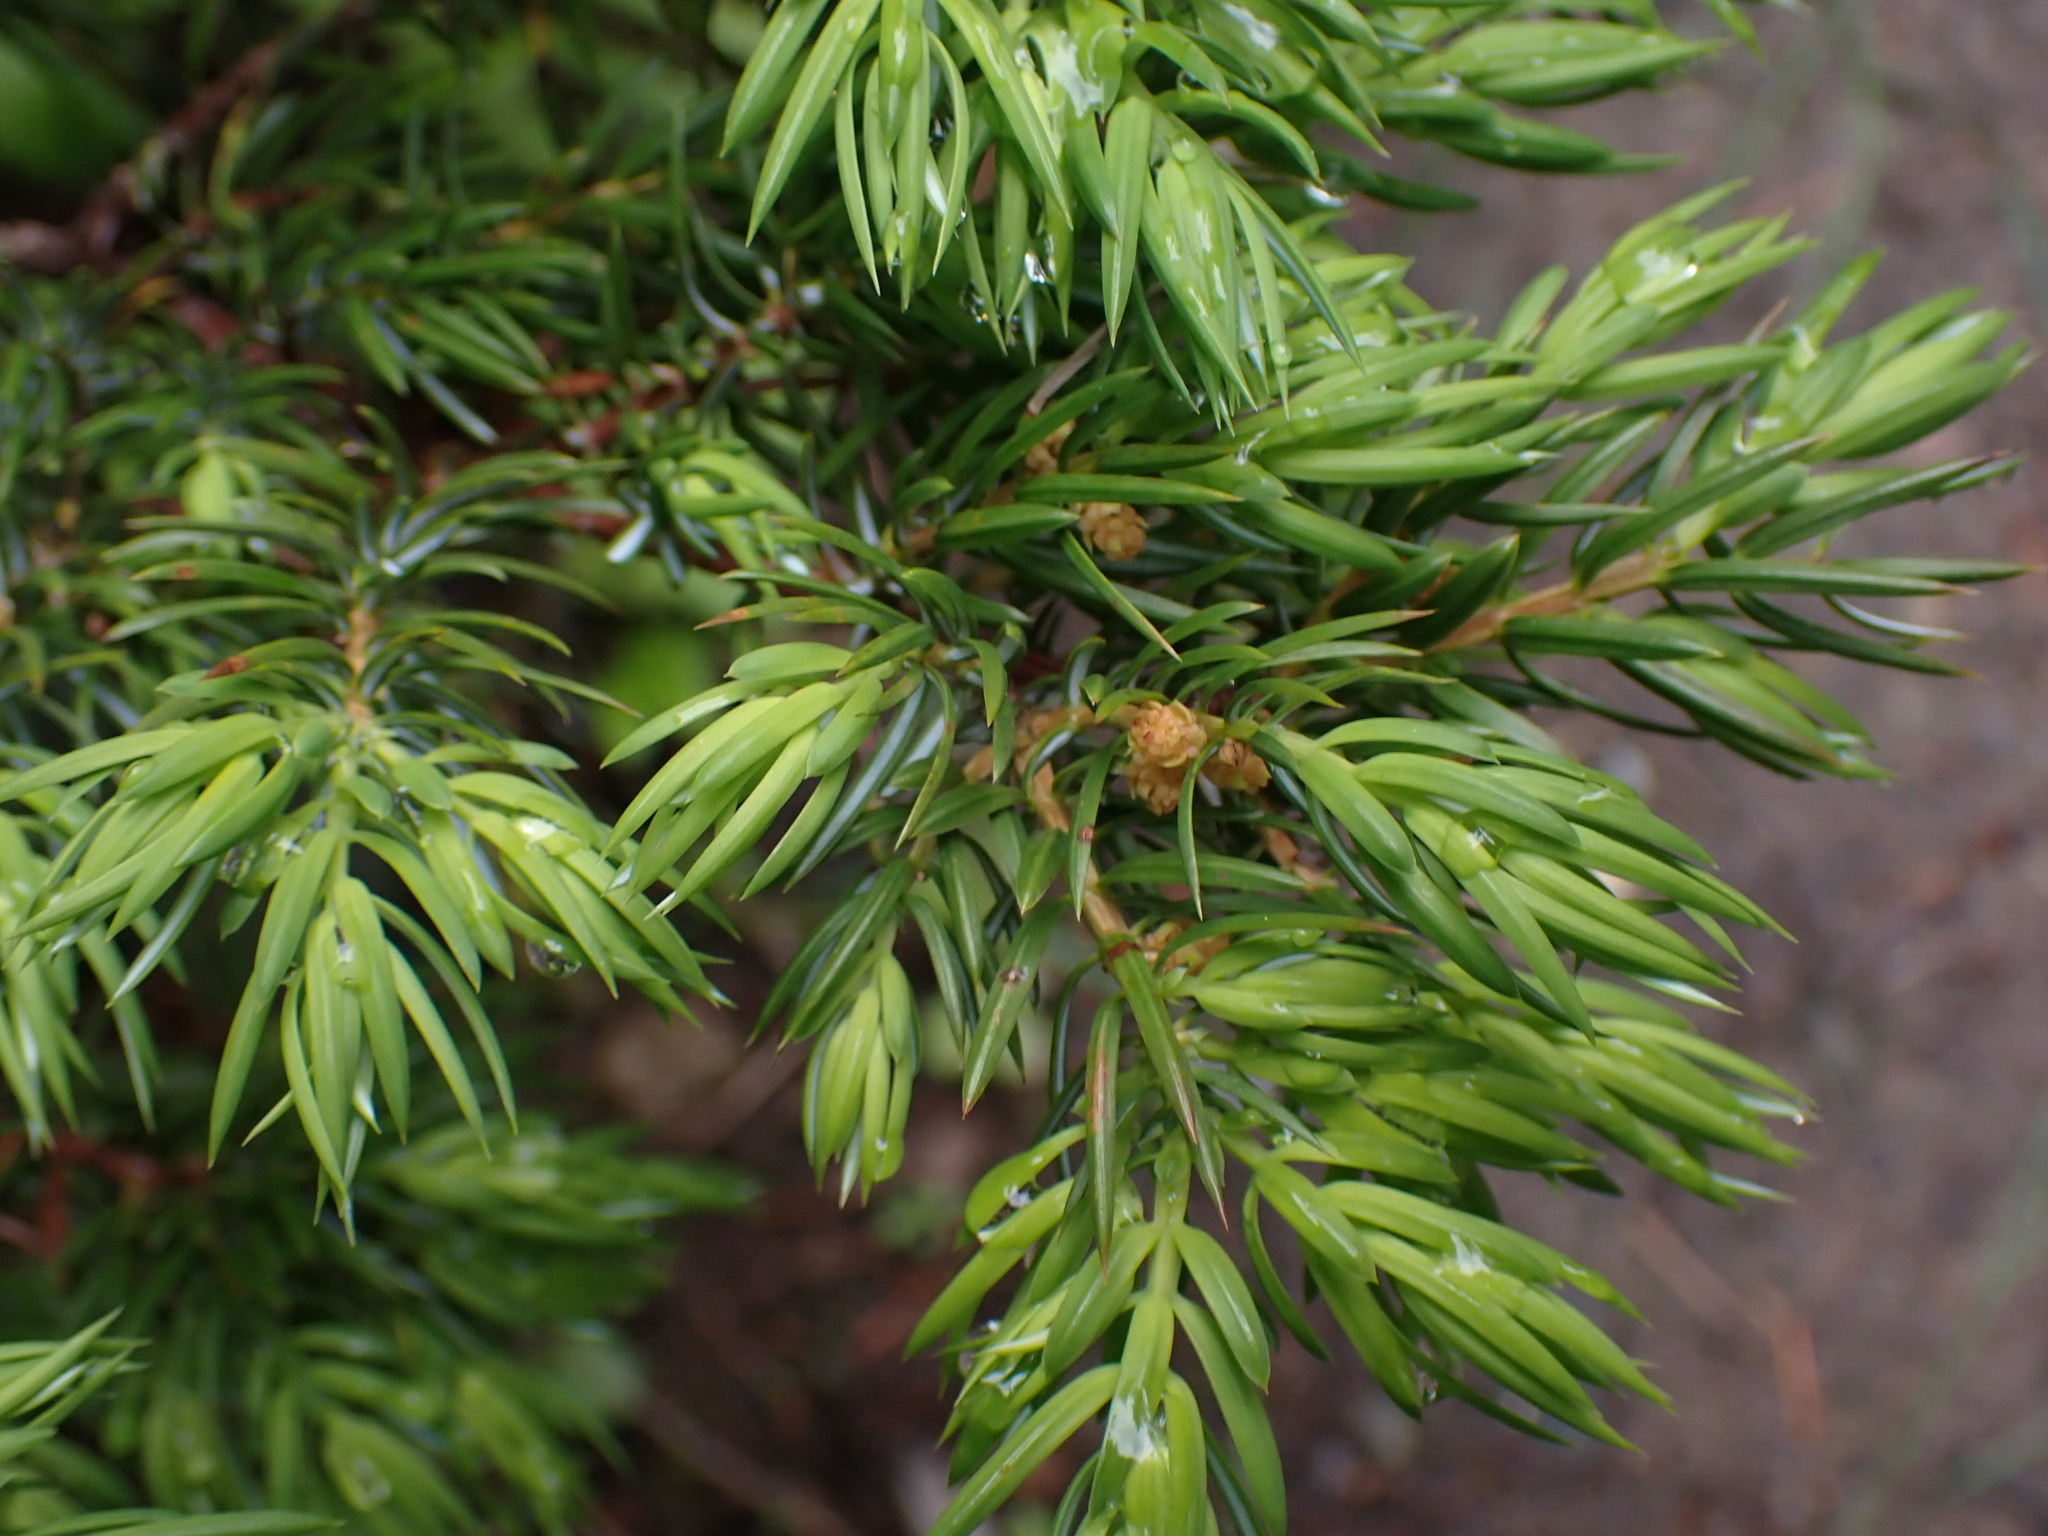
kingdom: Plantae
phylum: Tracheophyta
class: Pinopsida
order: Pinales
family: Cupressaceae
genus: Juniperus
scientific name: Juniperus communis
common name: Common juniper
